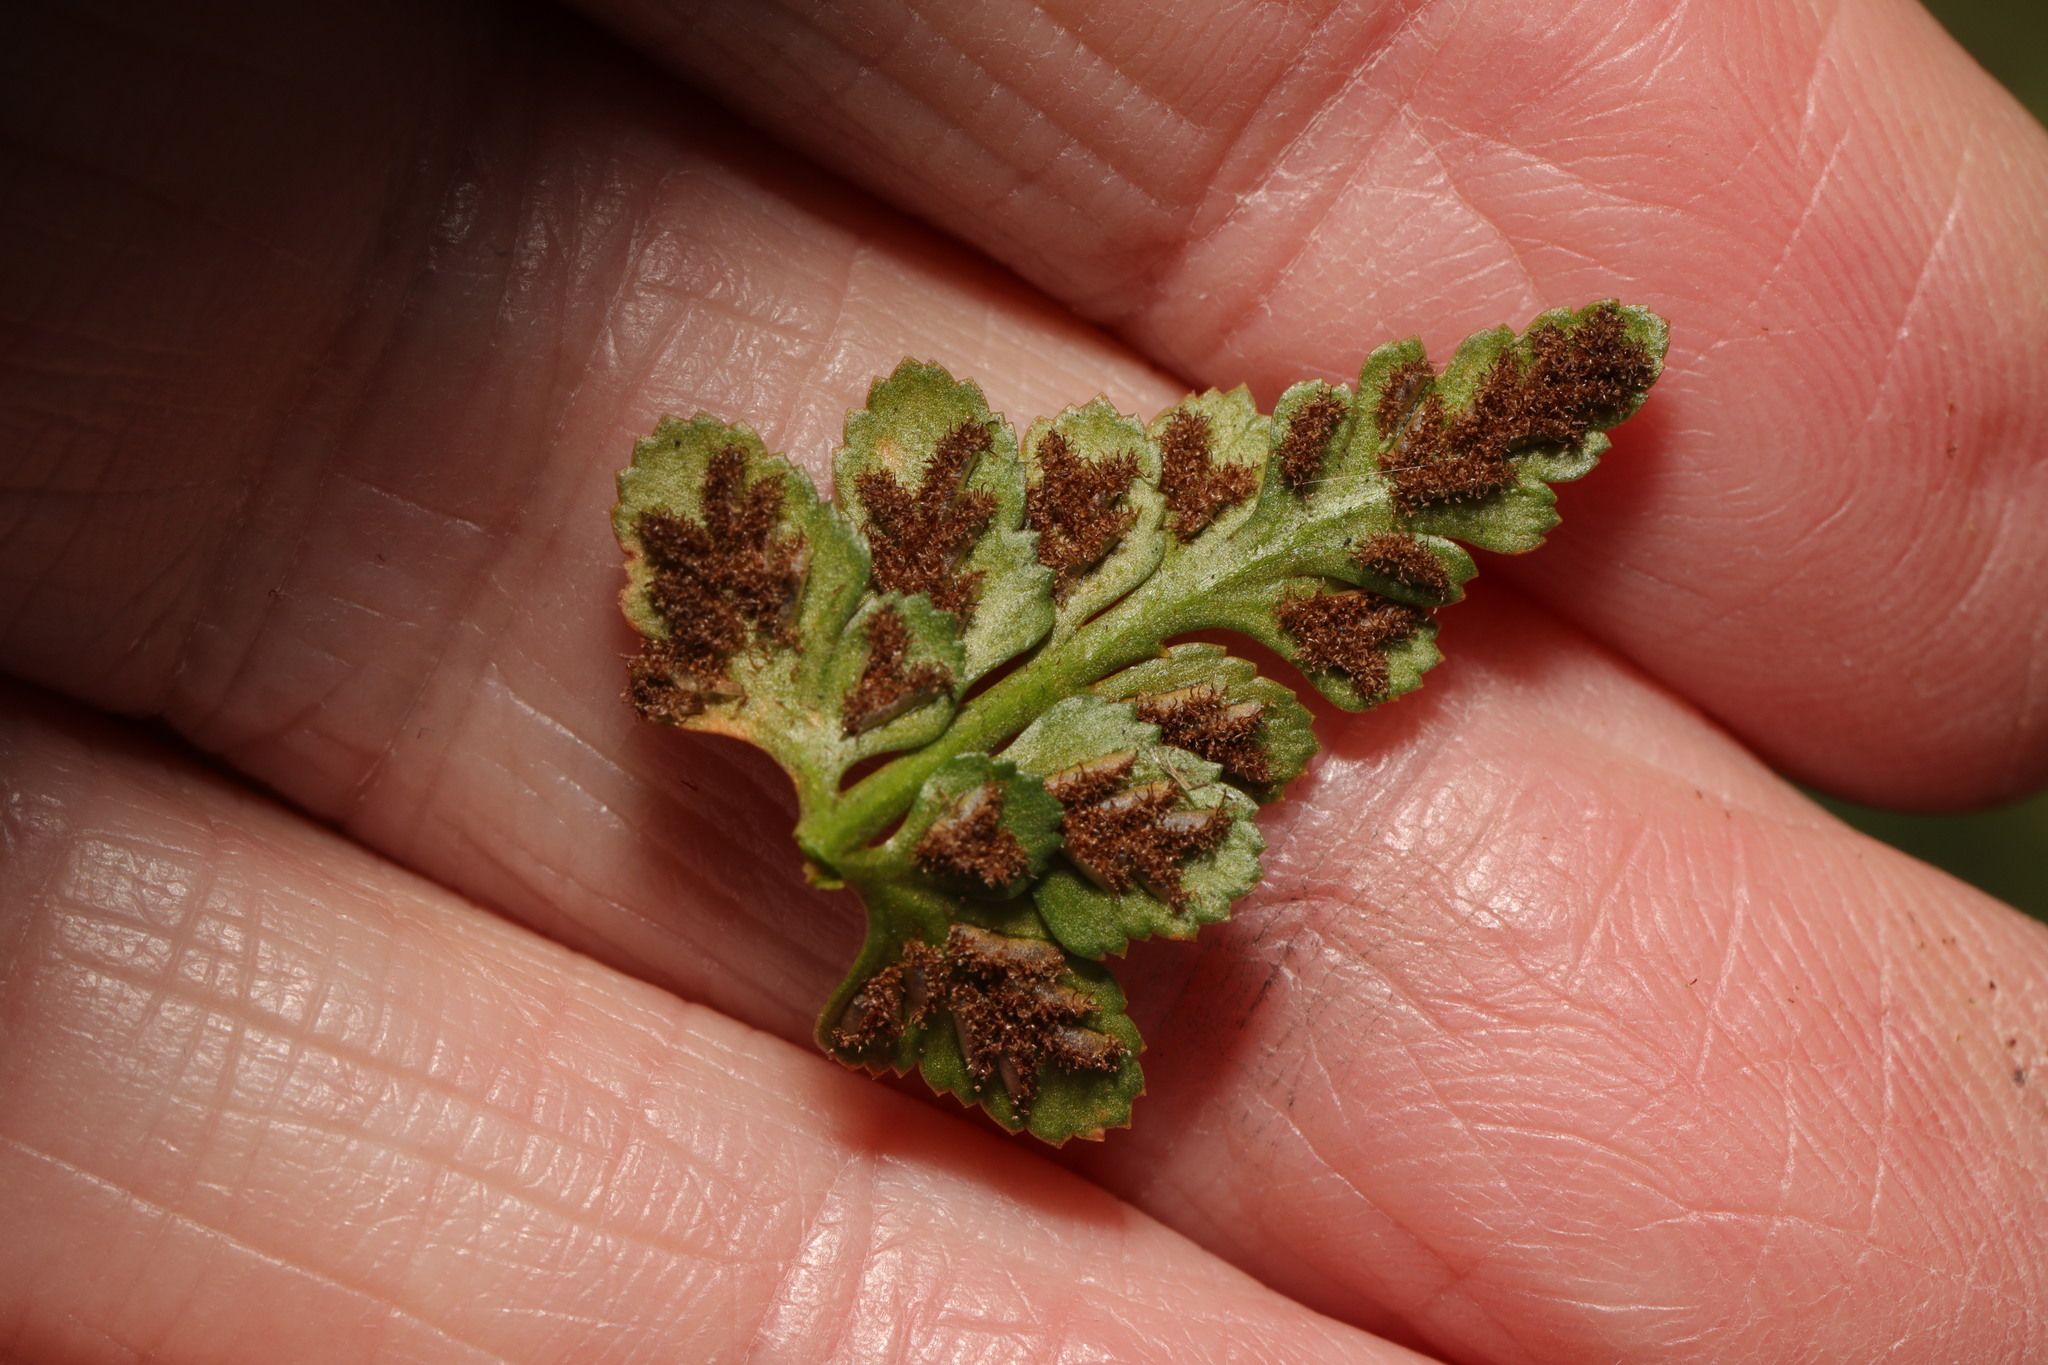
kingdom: Plantae
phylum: Tracheophyta
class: Polypodiopsida
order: Polypodiales
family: Aspleniaceae
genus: Asplenium
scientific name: Asplenium adiantum-nigrum
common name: Black spleenwort
